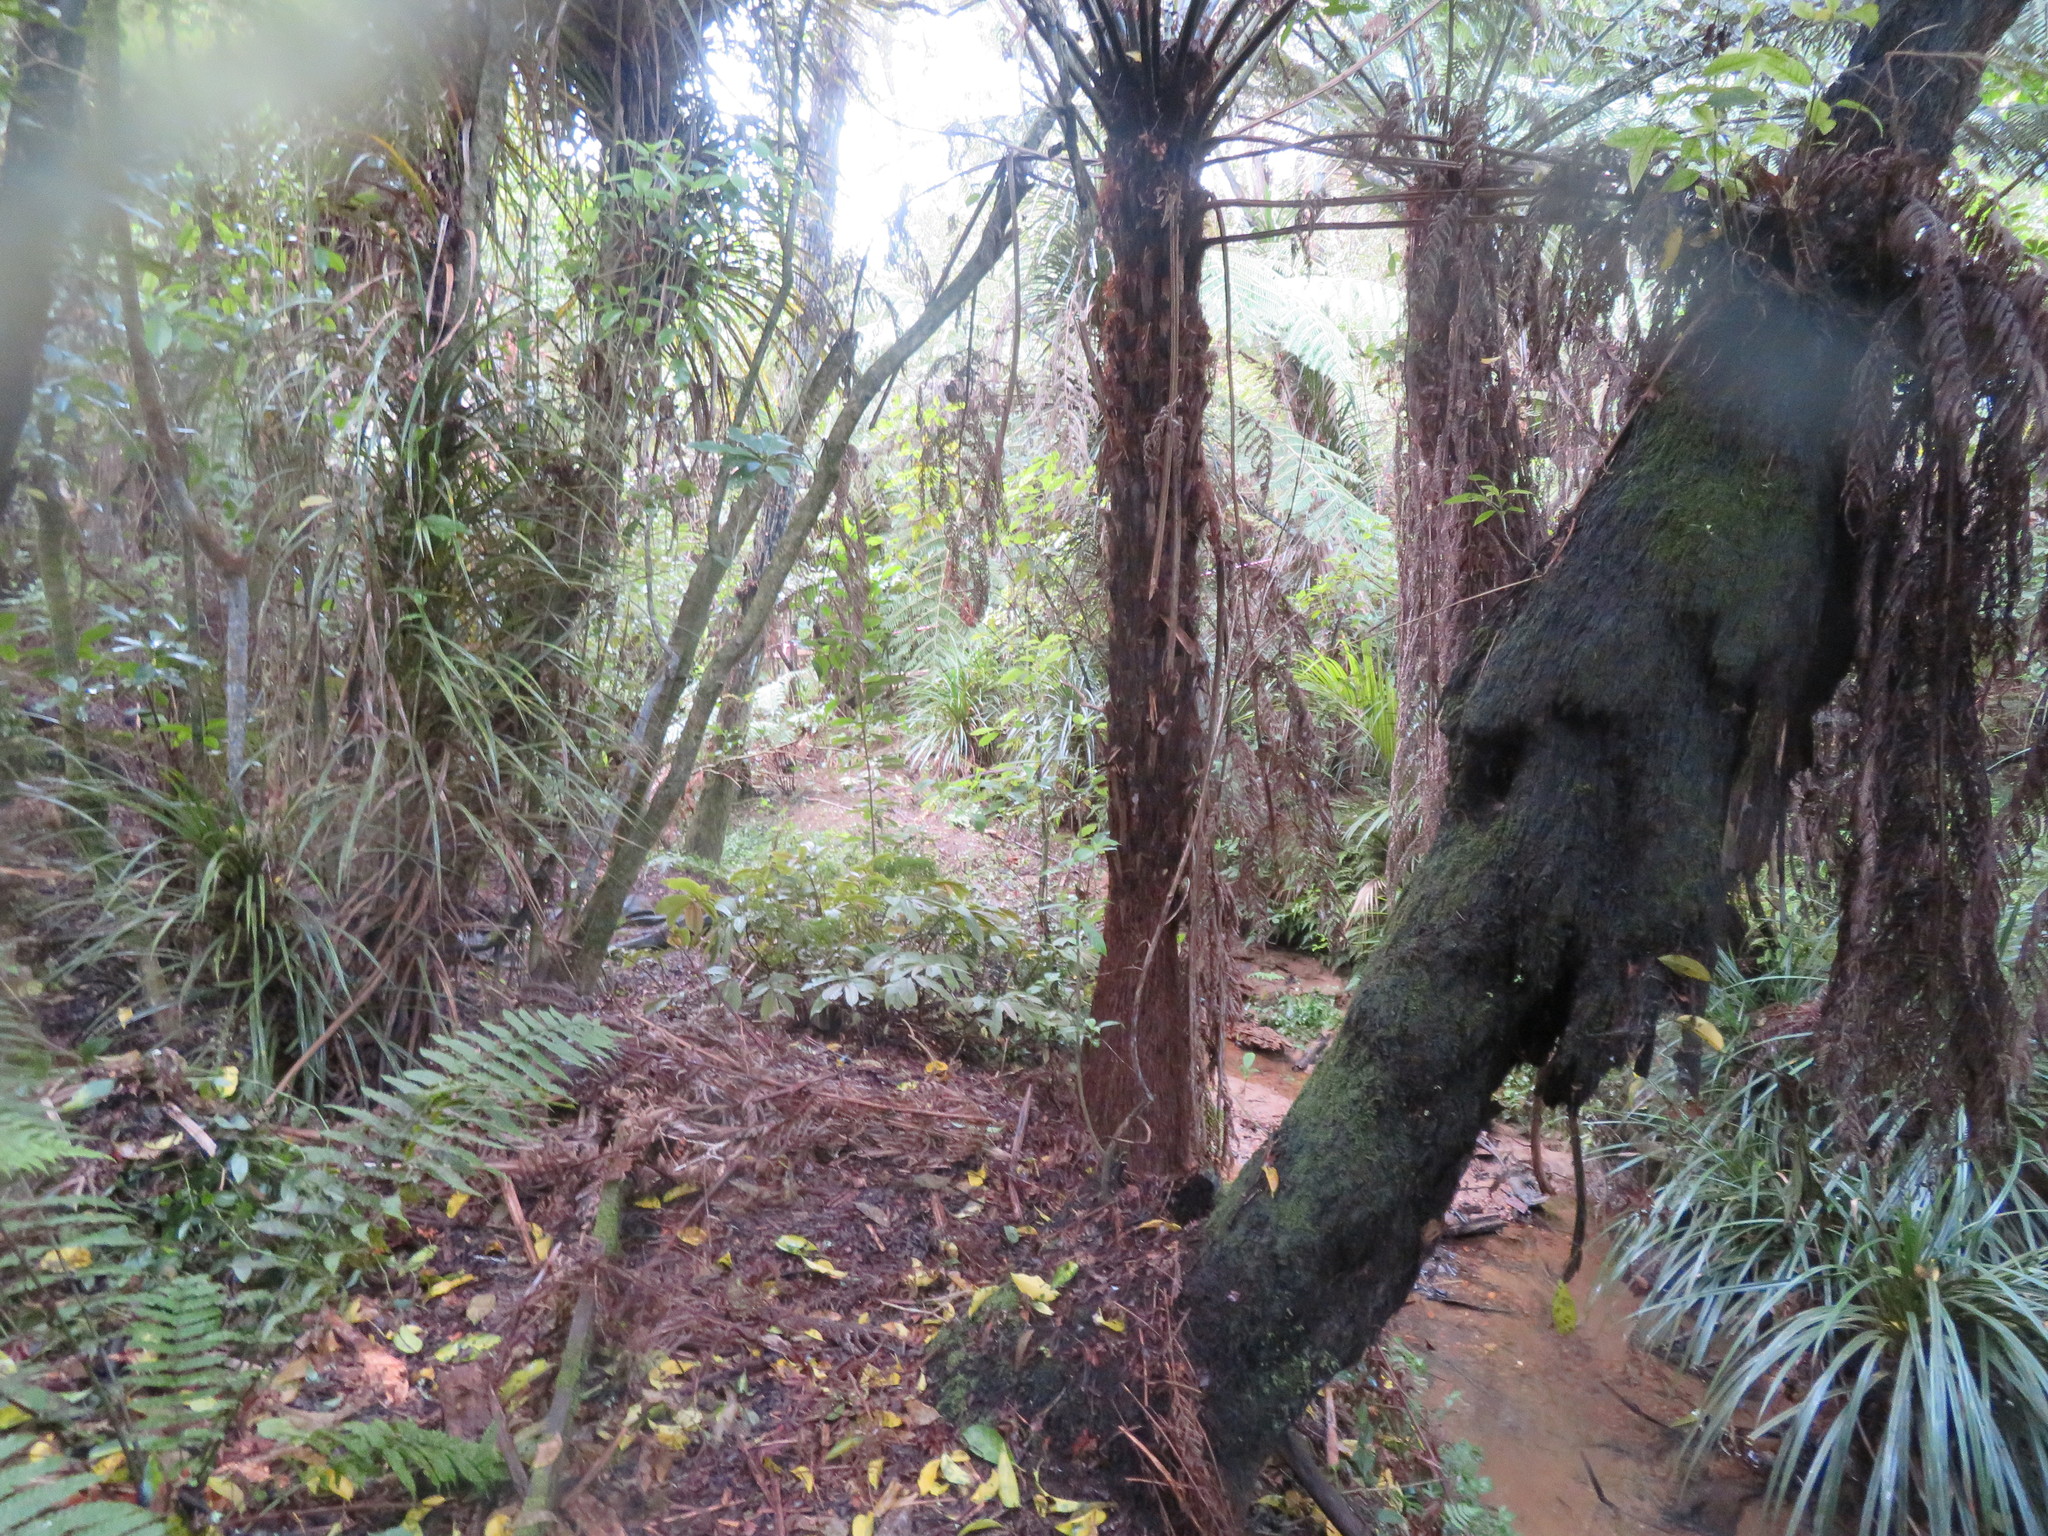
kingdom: Plantae
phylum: Tracheophyta
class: Liliopsida
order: Pandanales
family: Pandanaceae
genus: Freycinetia
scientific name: Freycinetia banksii
